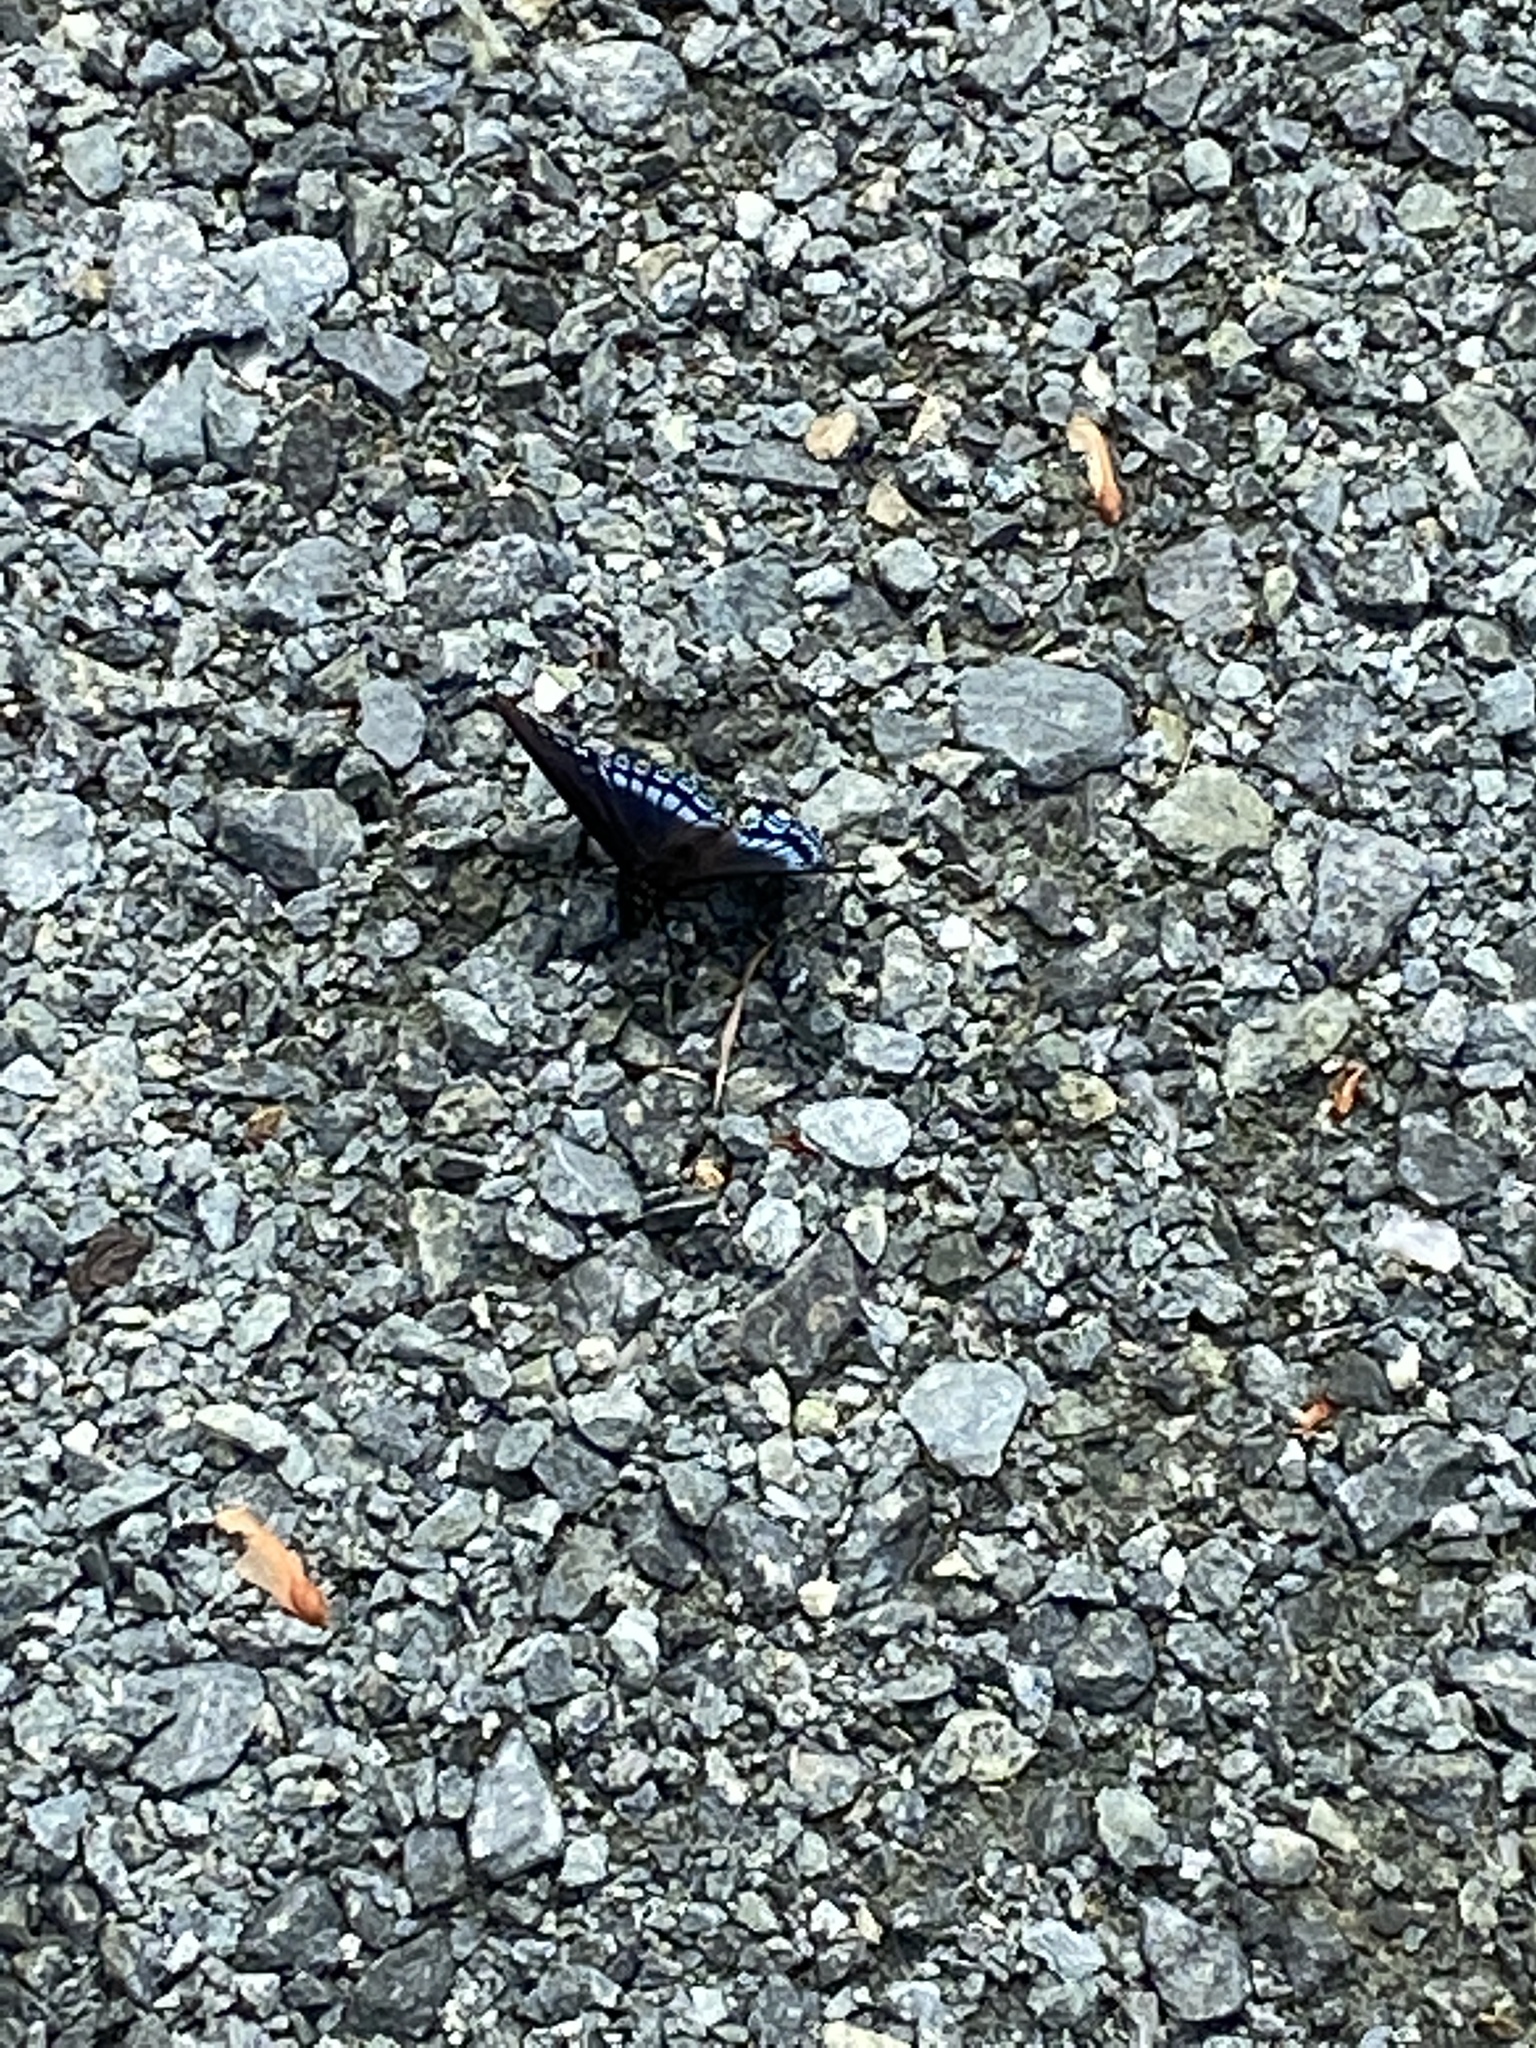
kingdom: Animalia
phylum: Arthropoda
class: Insecta
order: Lepidoptera
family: Nymphalidae
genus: Limenitis
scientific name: Limenitis astyanax
